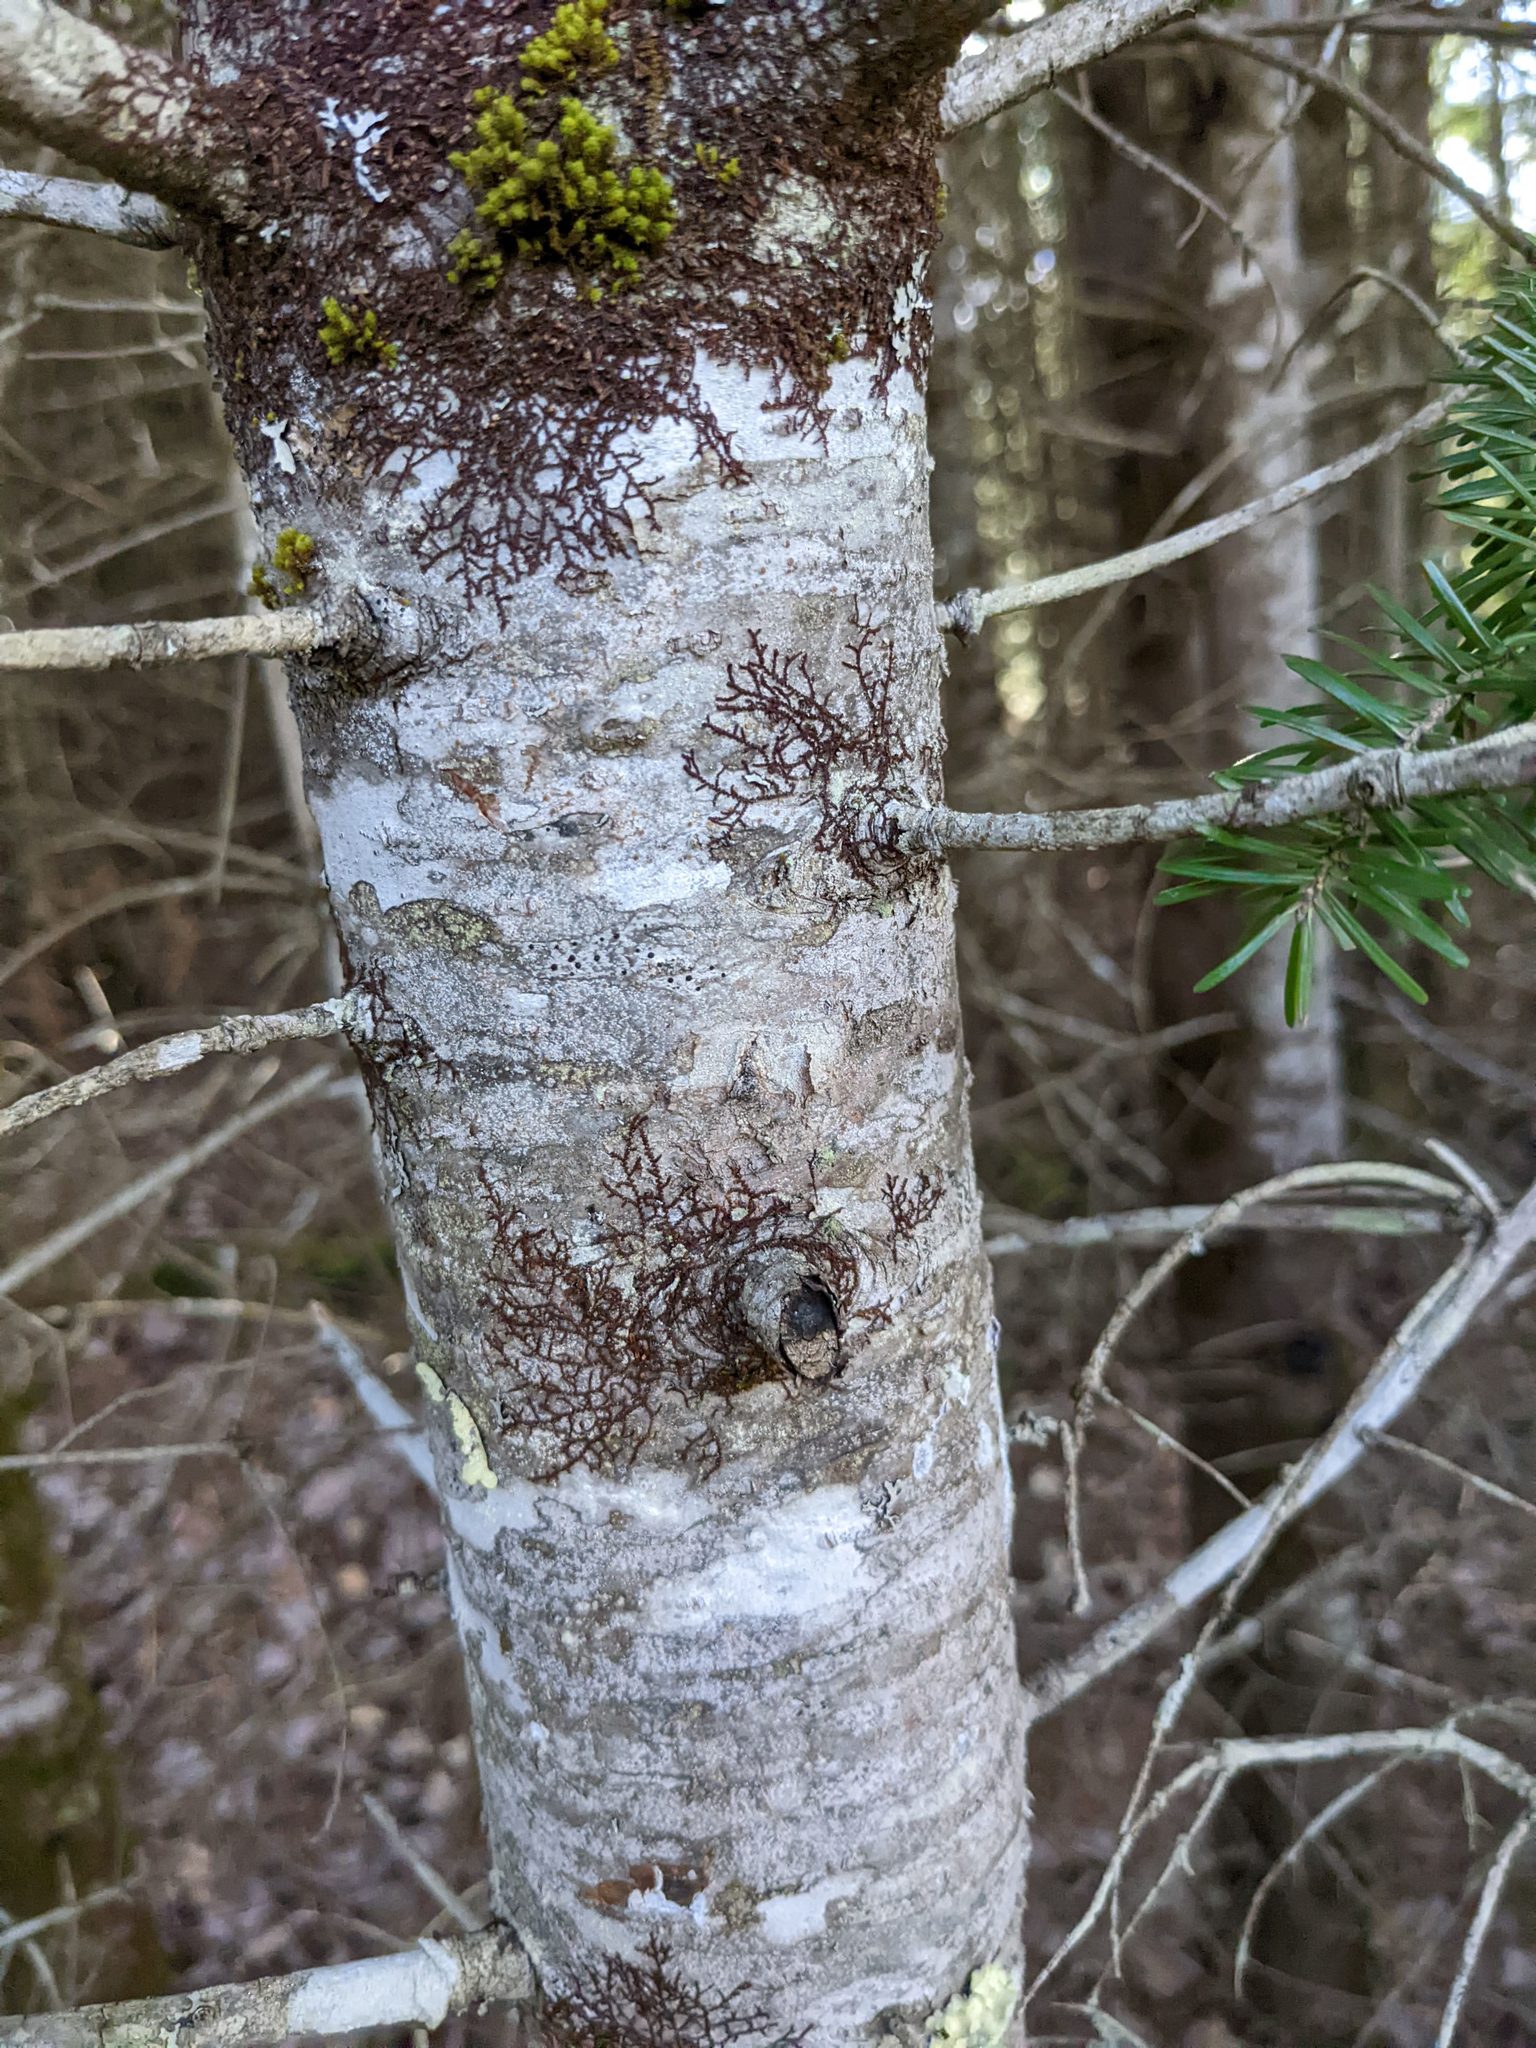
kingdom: Plantae
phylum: Bryophyta
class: Bryopsida
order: Orthotrichales
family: Orthotrichaceae
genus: Ulota
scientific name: Ulota crispa
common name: Crisped pincushion moss
